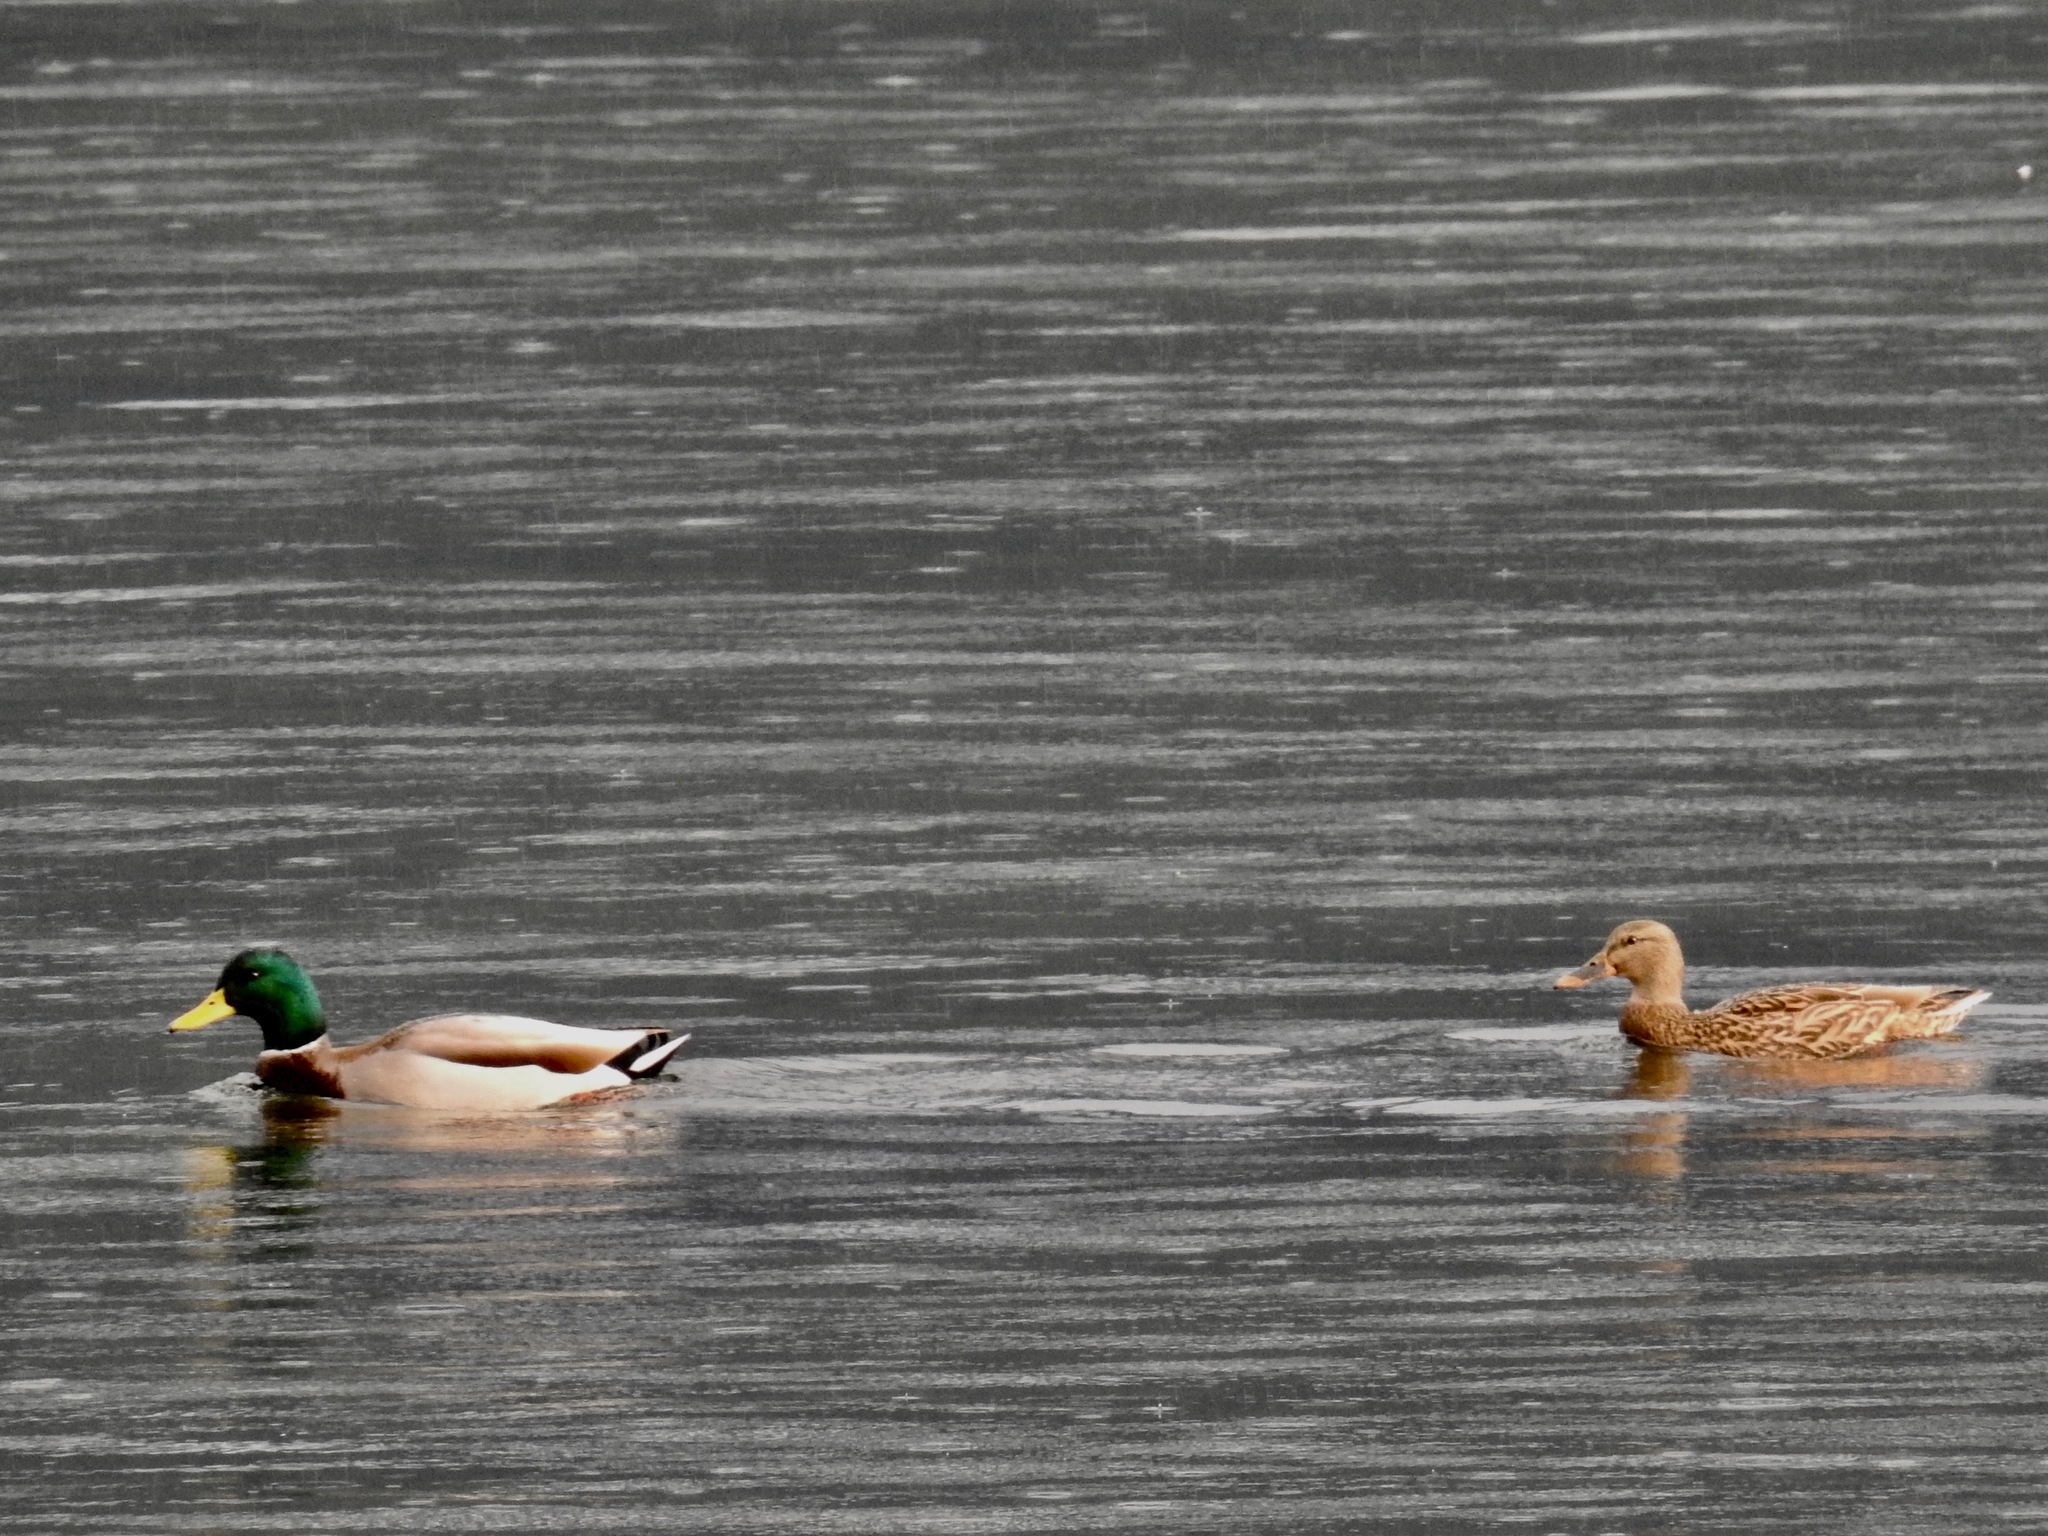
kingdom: Animalia
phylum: Chordata
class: Aves
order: Anseriformes
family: Anatidae
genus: Anas
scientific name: Anas platyrhynchos
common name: Mallard
